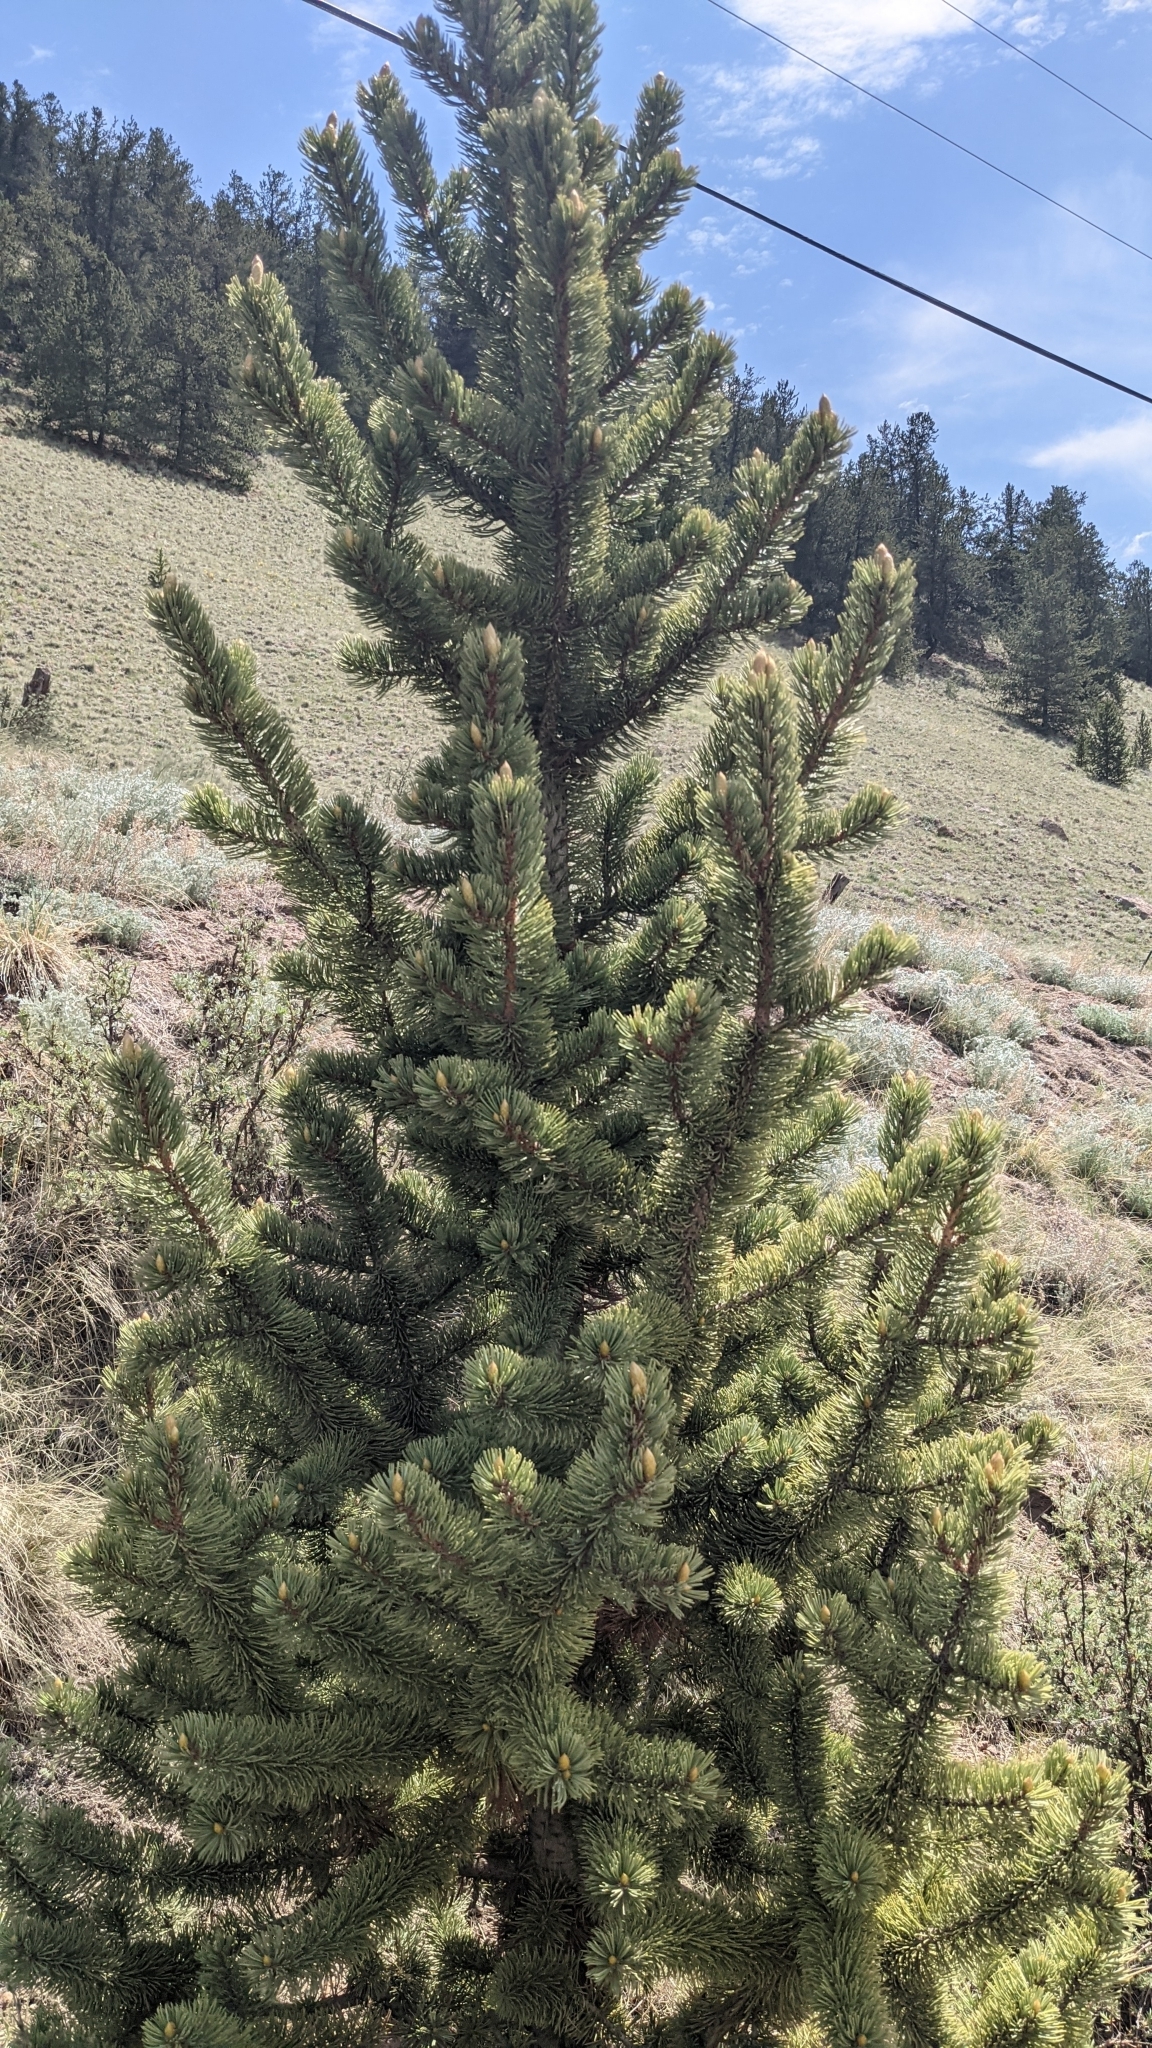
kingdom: Plantae
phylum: Tracheophyta
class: Pinopsida
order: Pinales
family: Pinaceae
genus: Pinus
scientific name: Pinus aristata
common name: Colorado bristlecone pine
